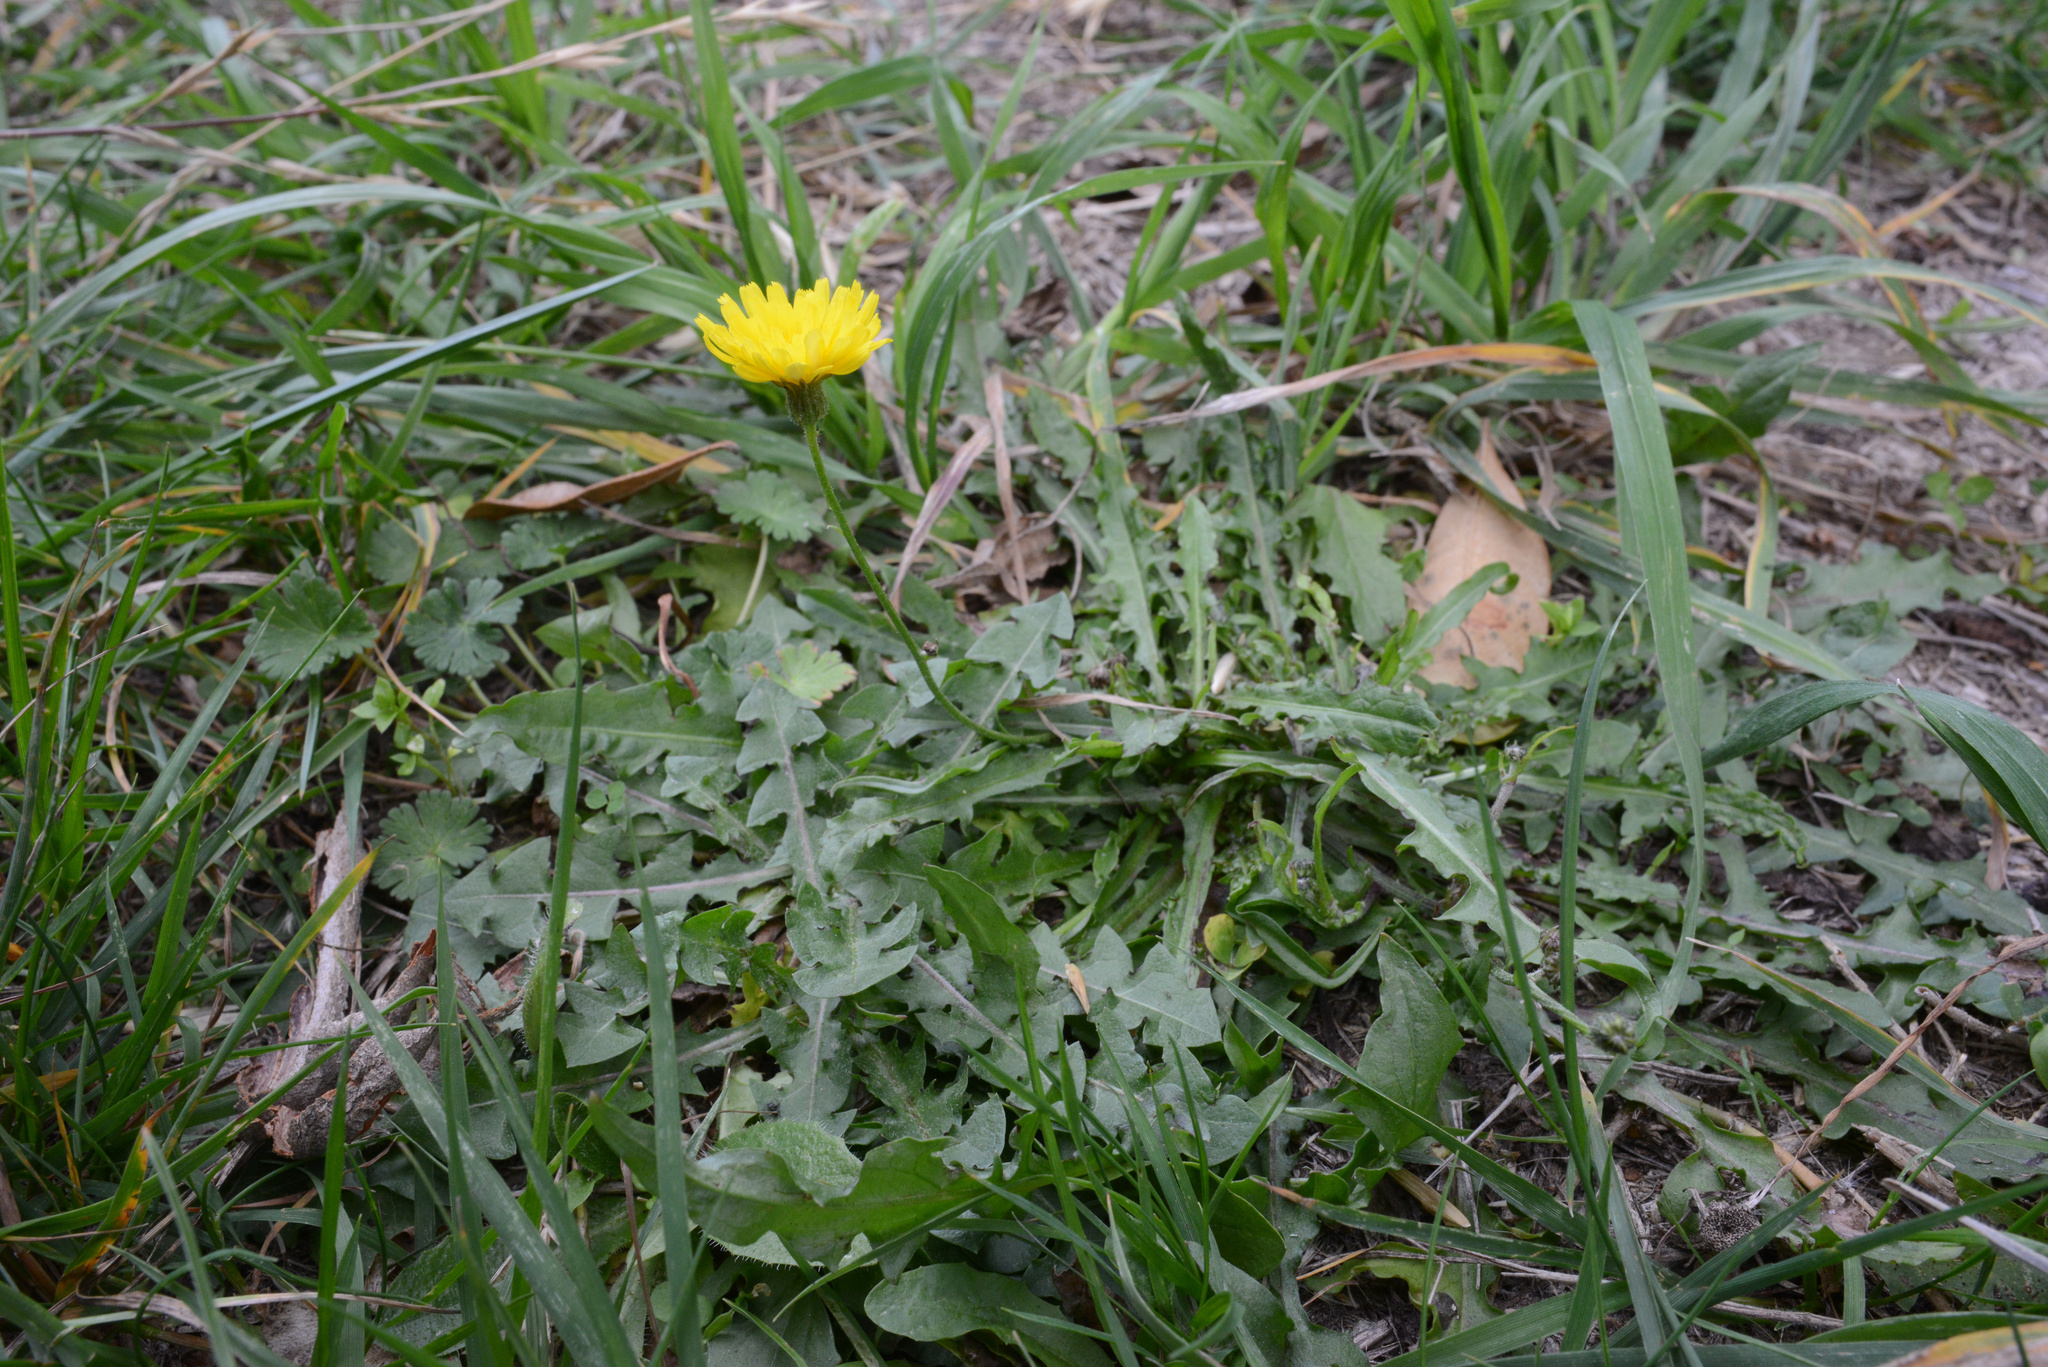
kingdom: Plantae
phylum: Tracheophyta
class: Magnoliopsida
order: Asterales
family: Asteraceae
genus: Taraxacum
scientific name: Taraxacum officinale
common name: Common dandelion
